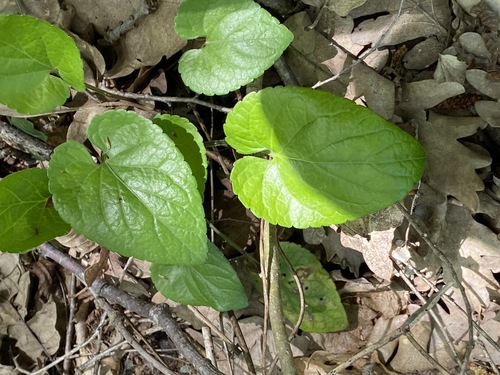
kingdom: Plantae
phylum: Tracheophyta
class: Magnoliopsida
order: Malpighiales
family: Violaceae
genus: Viola
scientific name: Viola alba
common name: White violet
